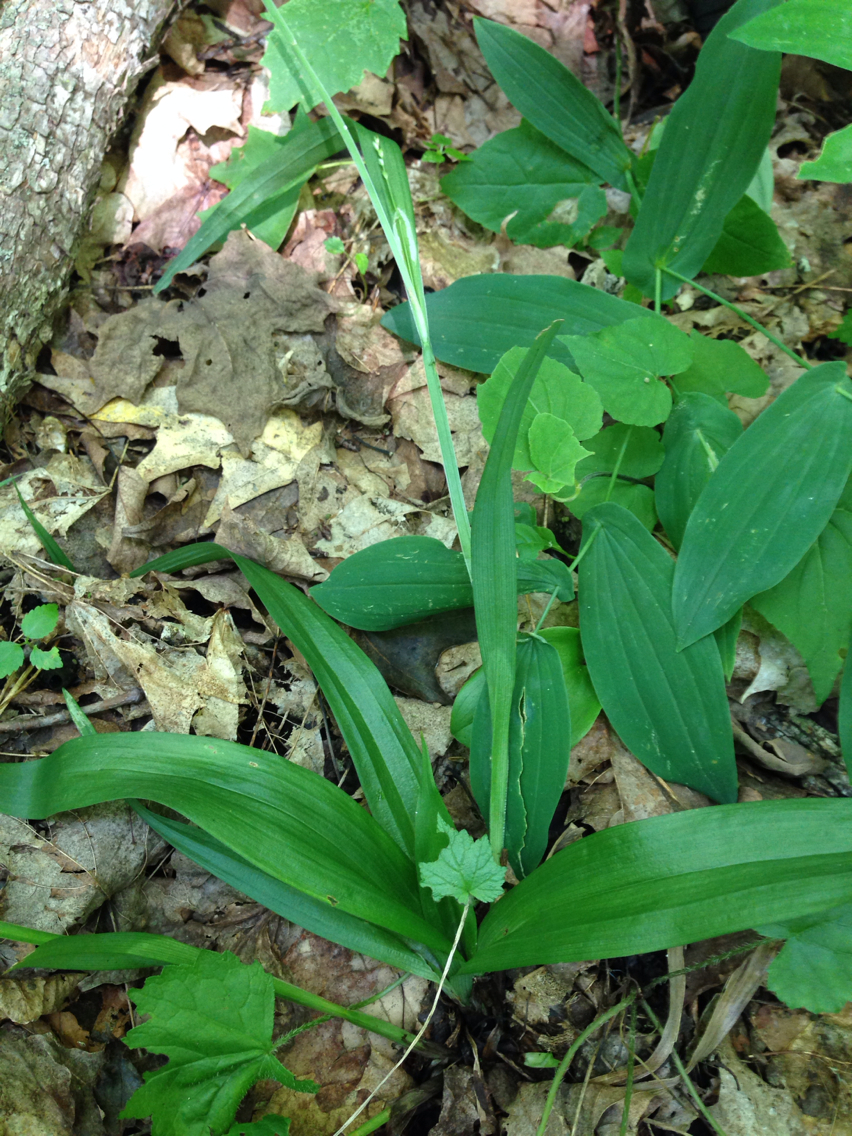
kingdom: Plantae
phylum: Tracheophyta
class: Liliopsida
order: Poales
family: Cyperaceae
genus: Carex
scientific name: Carex albursina
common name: Blunt-scale wood sedge
